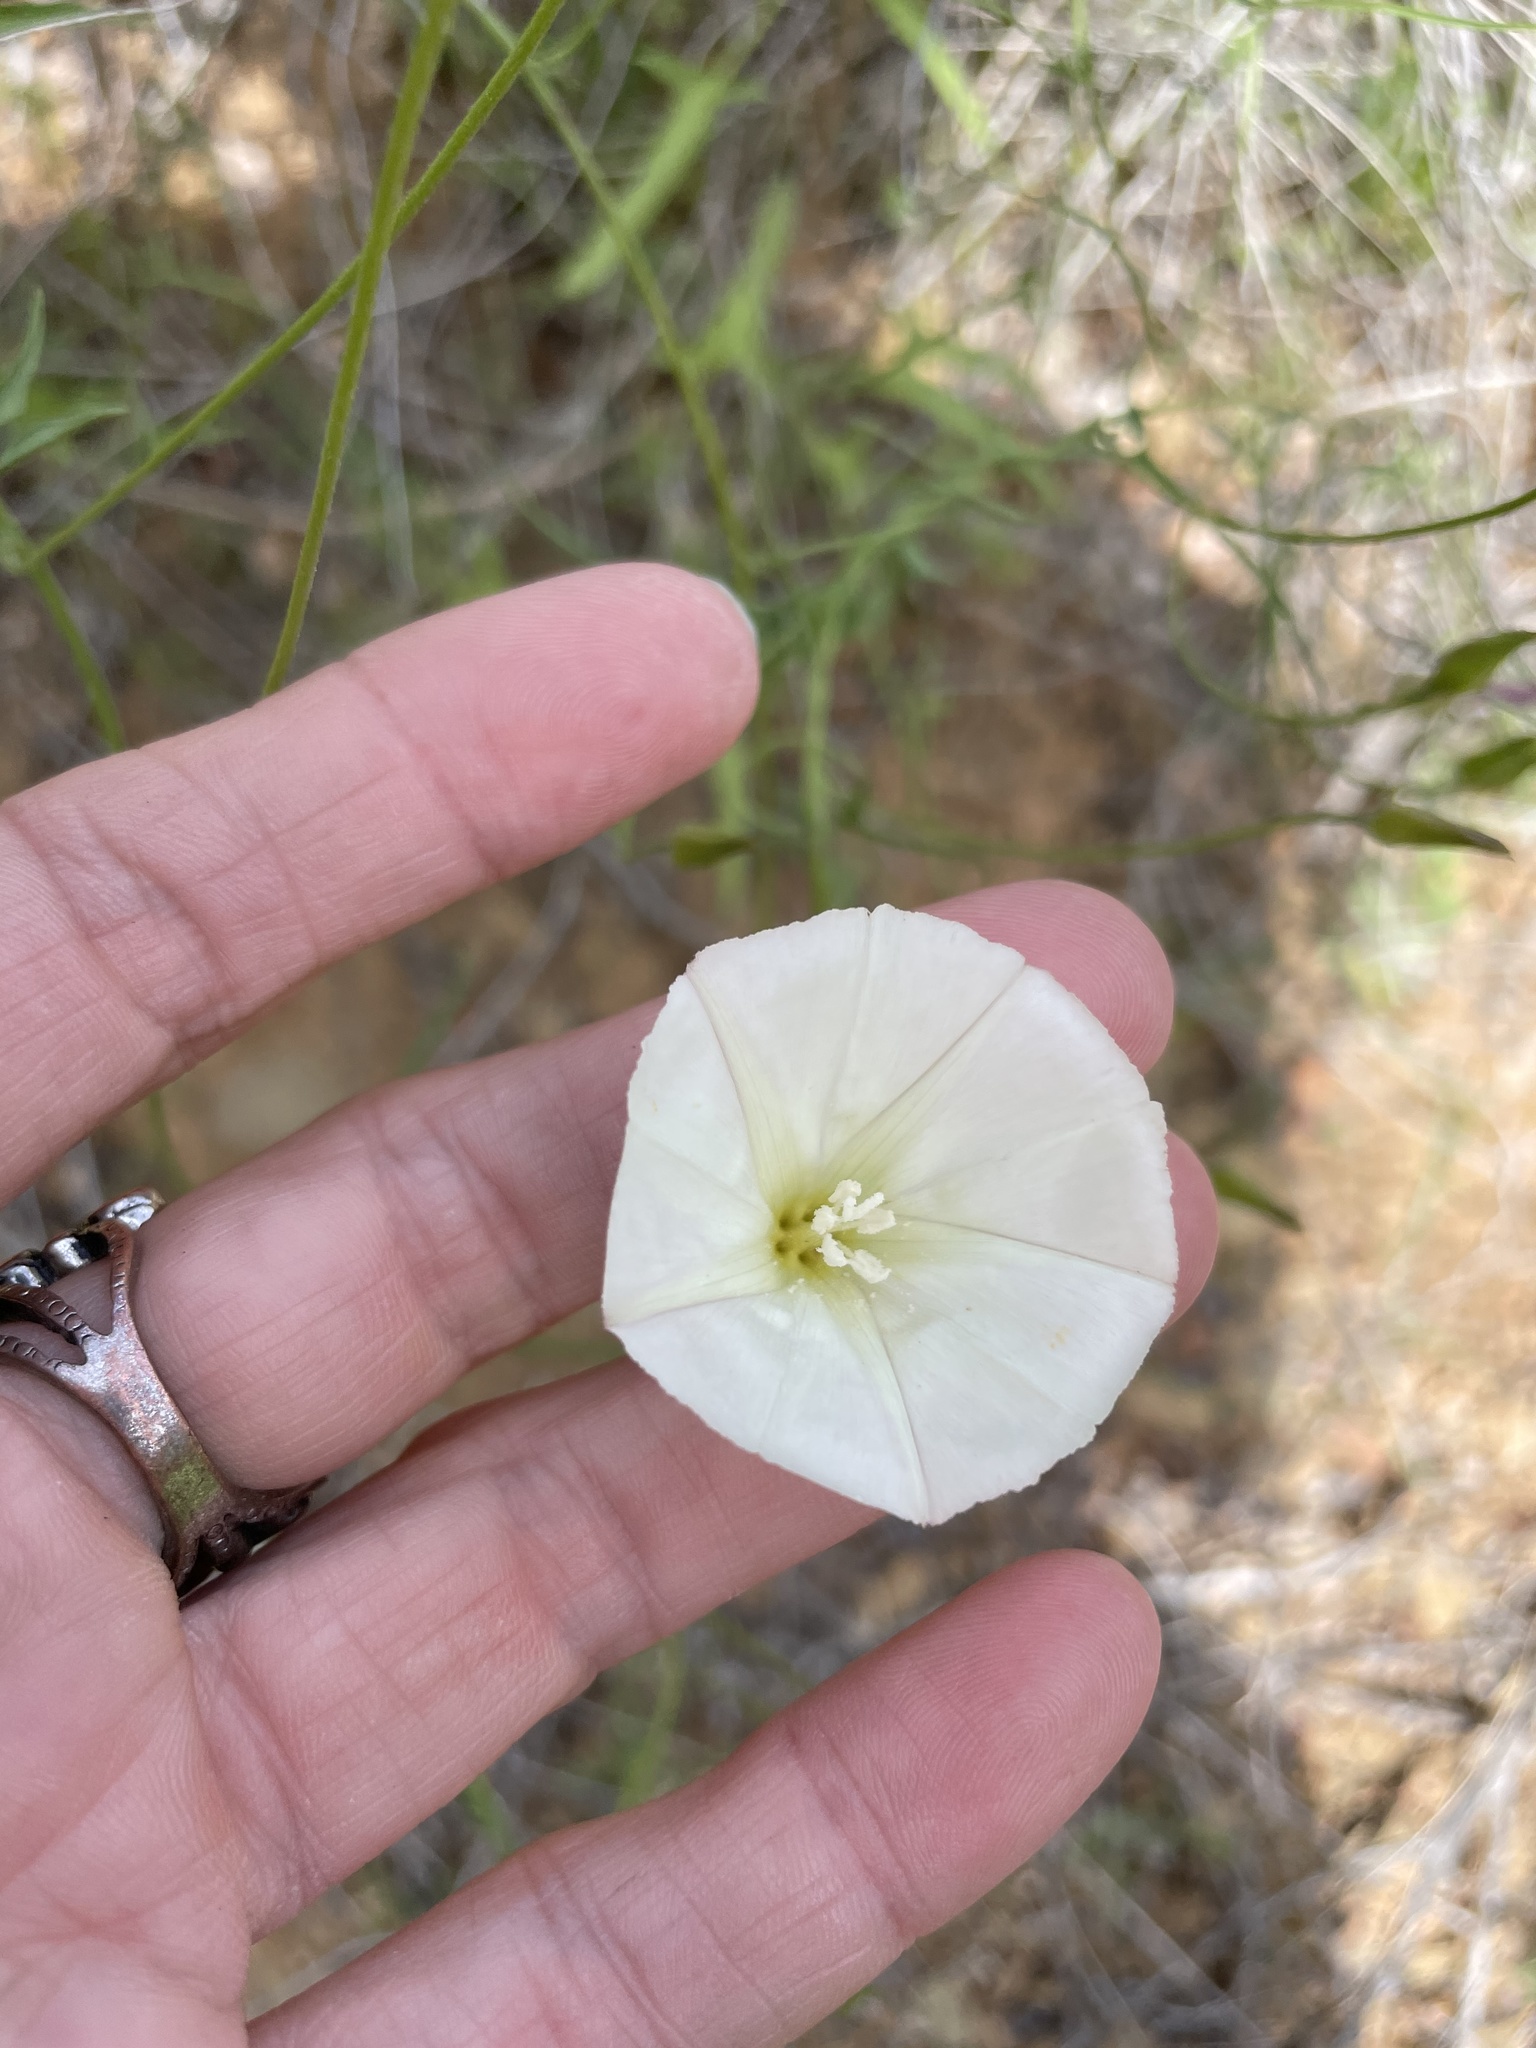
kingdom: Plantae
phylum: Tracheophyta
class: Magnoliopsida
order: Solanales
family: Convolvulaceae
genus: Calystegia
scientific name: Calystegia macrostegia
